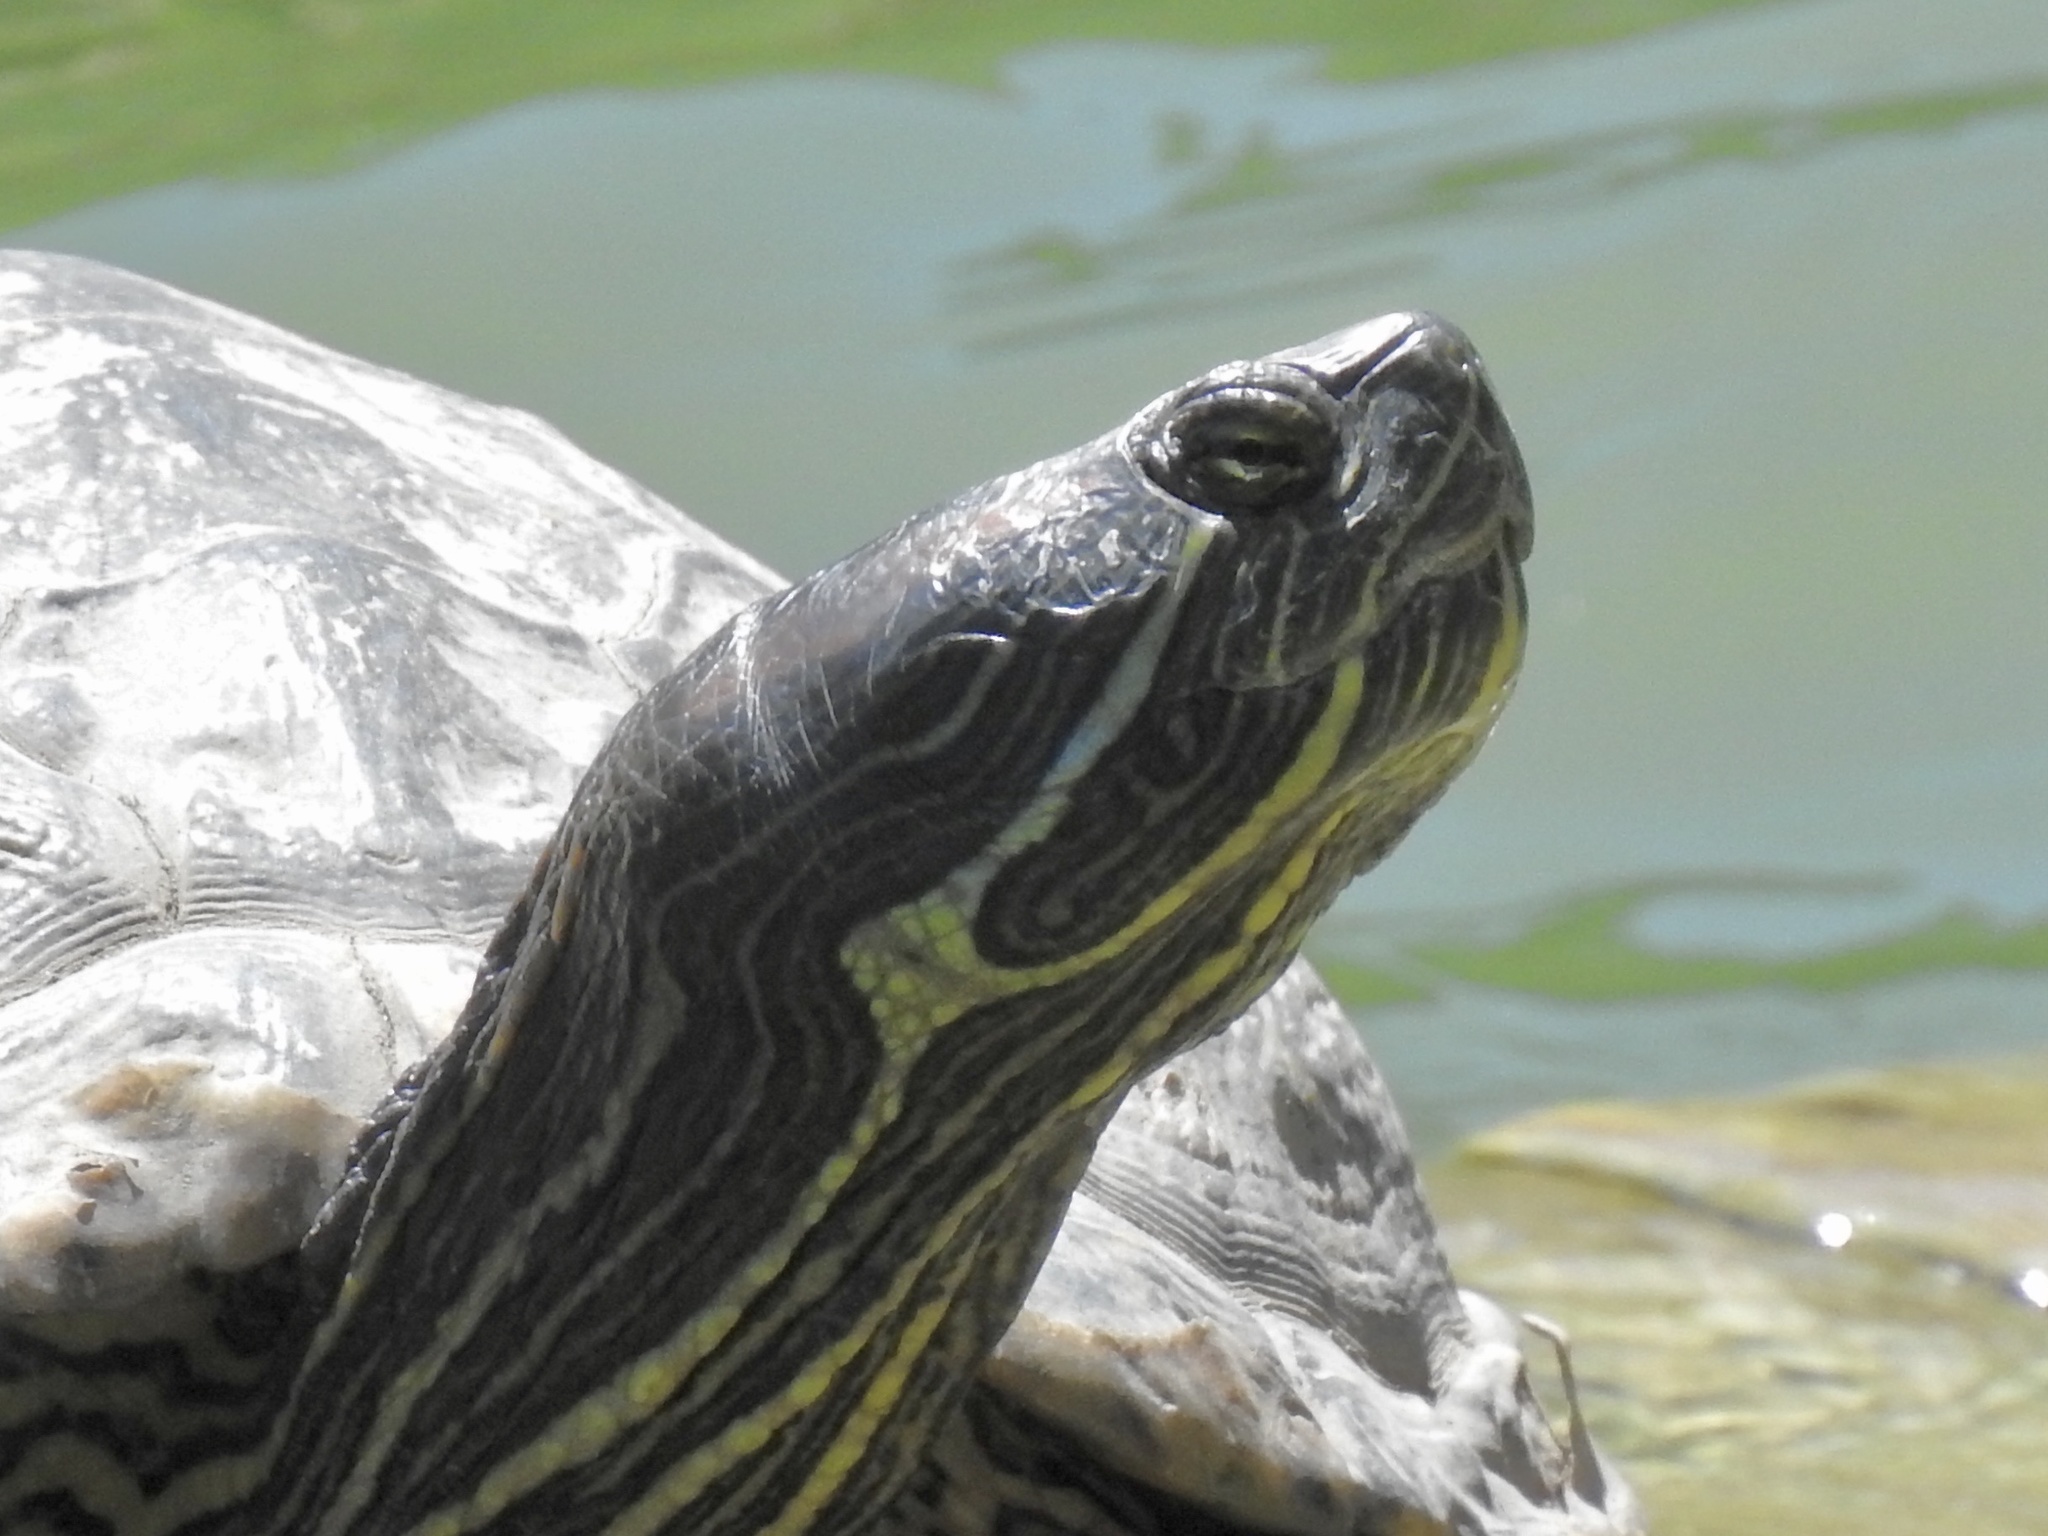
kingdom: Animalia
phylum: Chordata
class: Testudines
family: Emydidae
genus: Trachemys
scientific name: Trachemys scripta
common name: Slider
